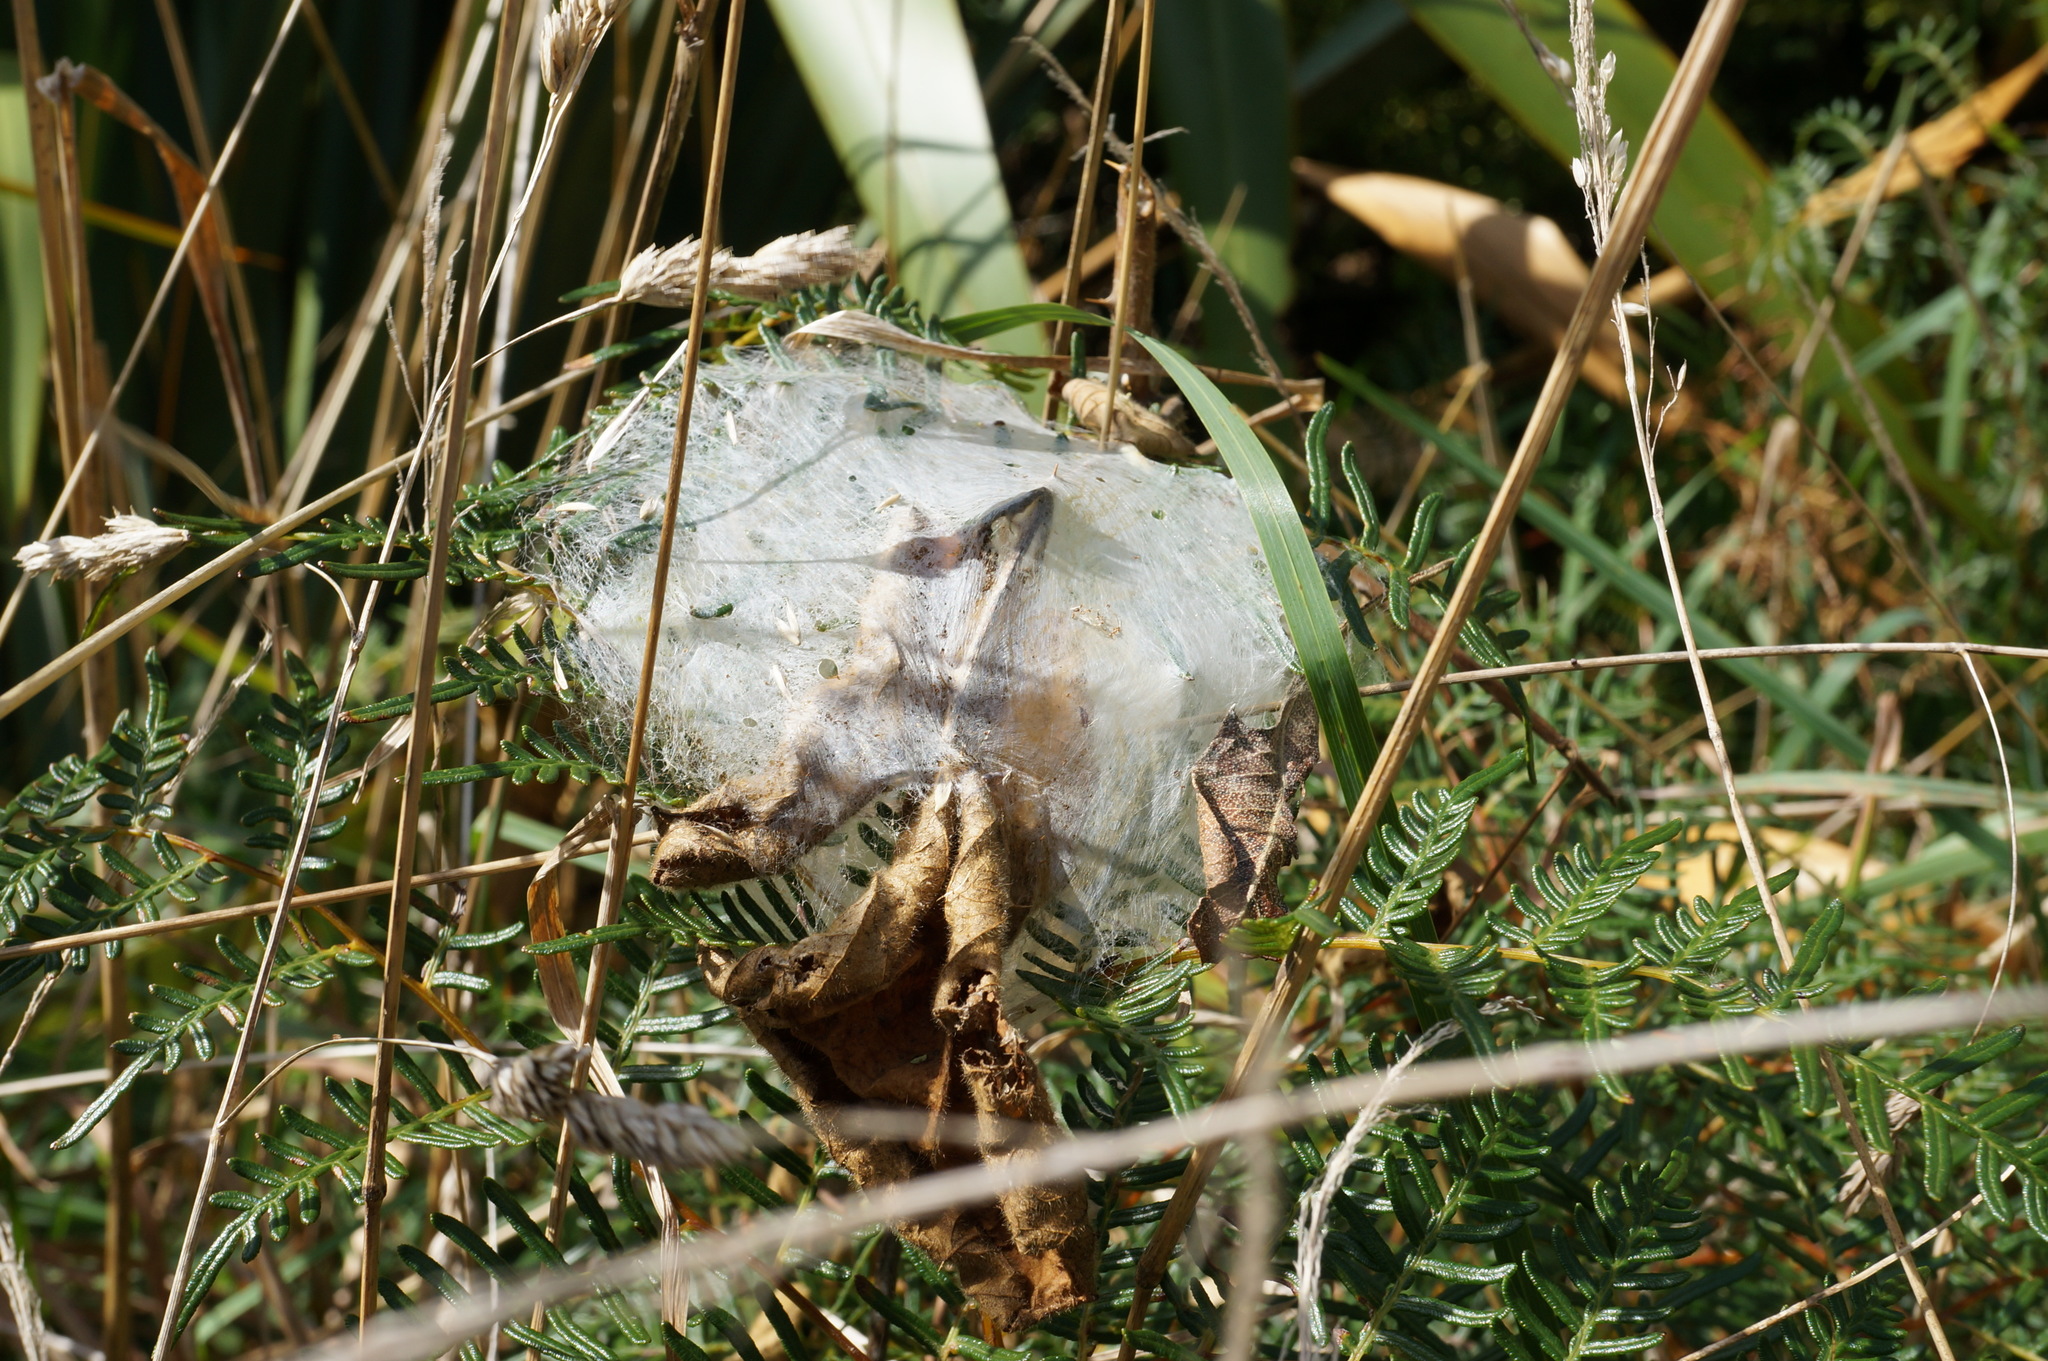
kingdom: Animalia
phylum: Arthropoda
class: Arachnida
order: Araneae
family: Pisauridae
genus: Dolomedes
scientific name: Dolomedes minor
